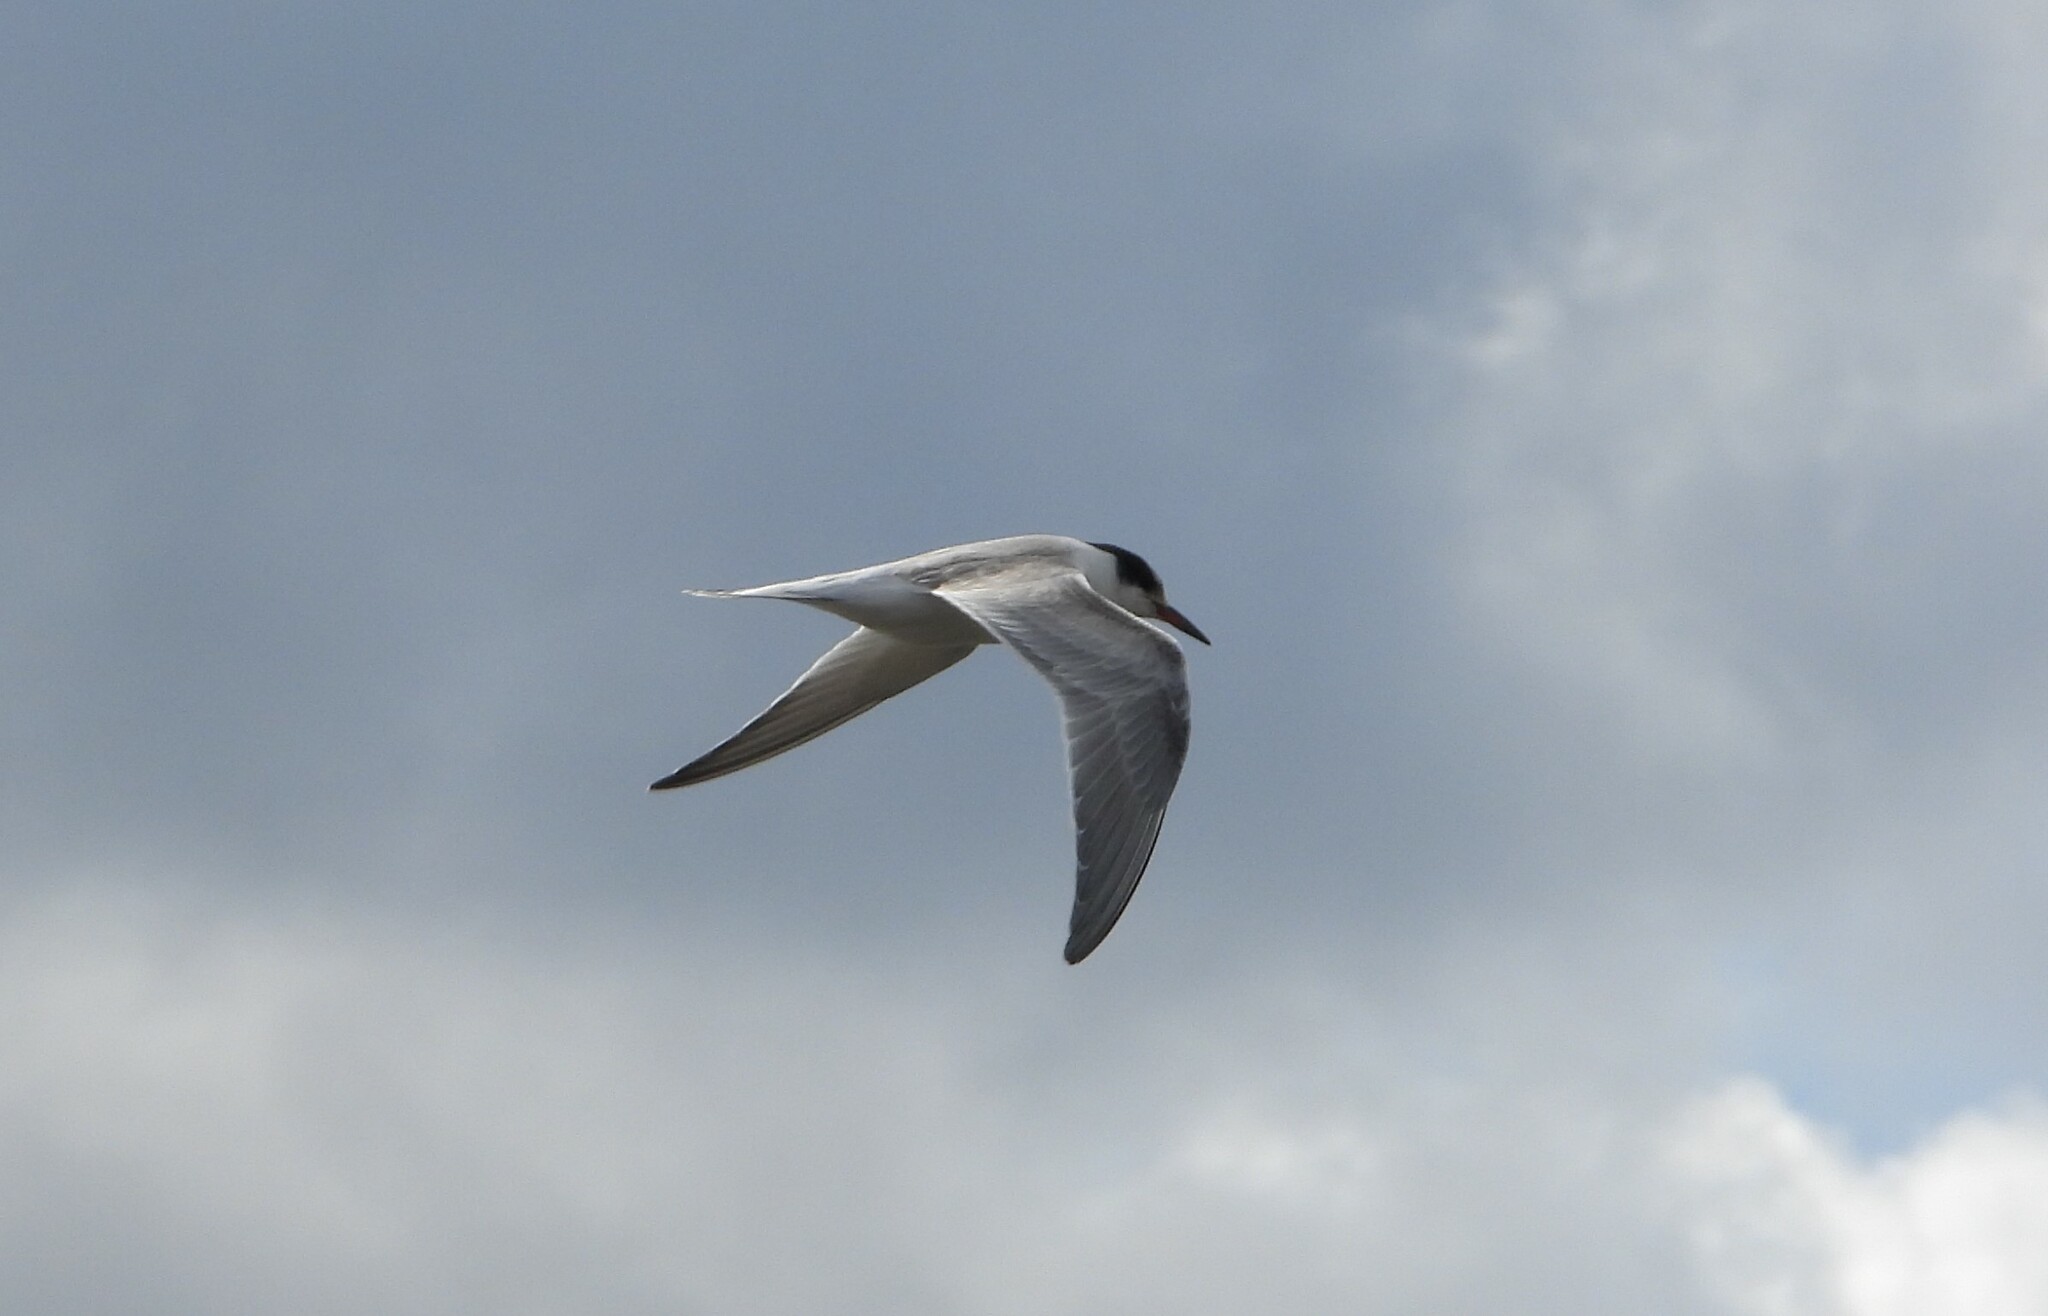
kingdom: Animalia
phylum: Chordata
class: Aves
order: Charadriiformes
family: Laridae
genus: Sterna
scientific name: Sterna hirundo
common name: Common tern
